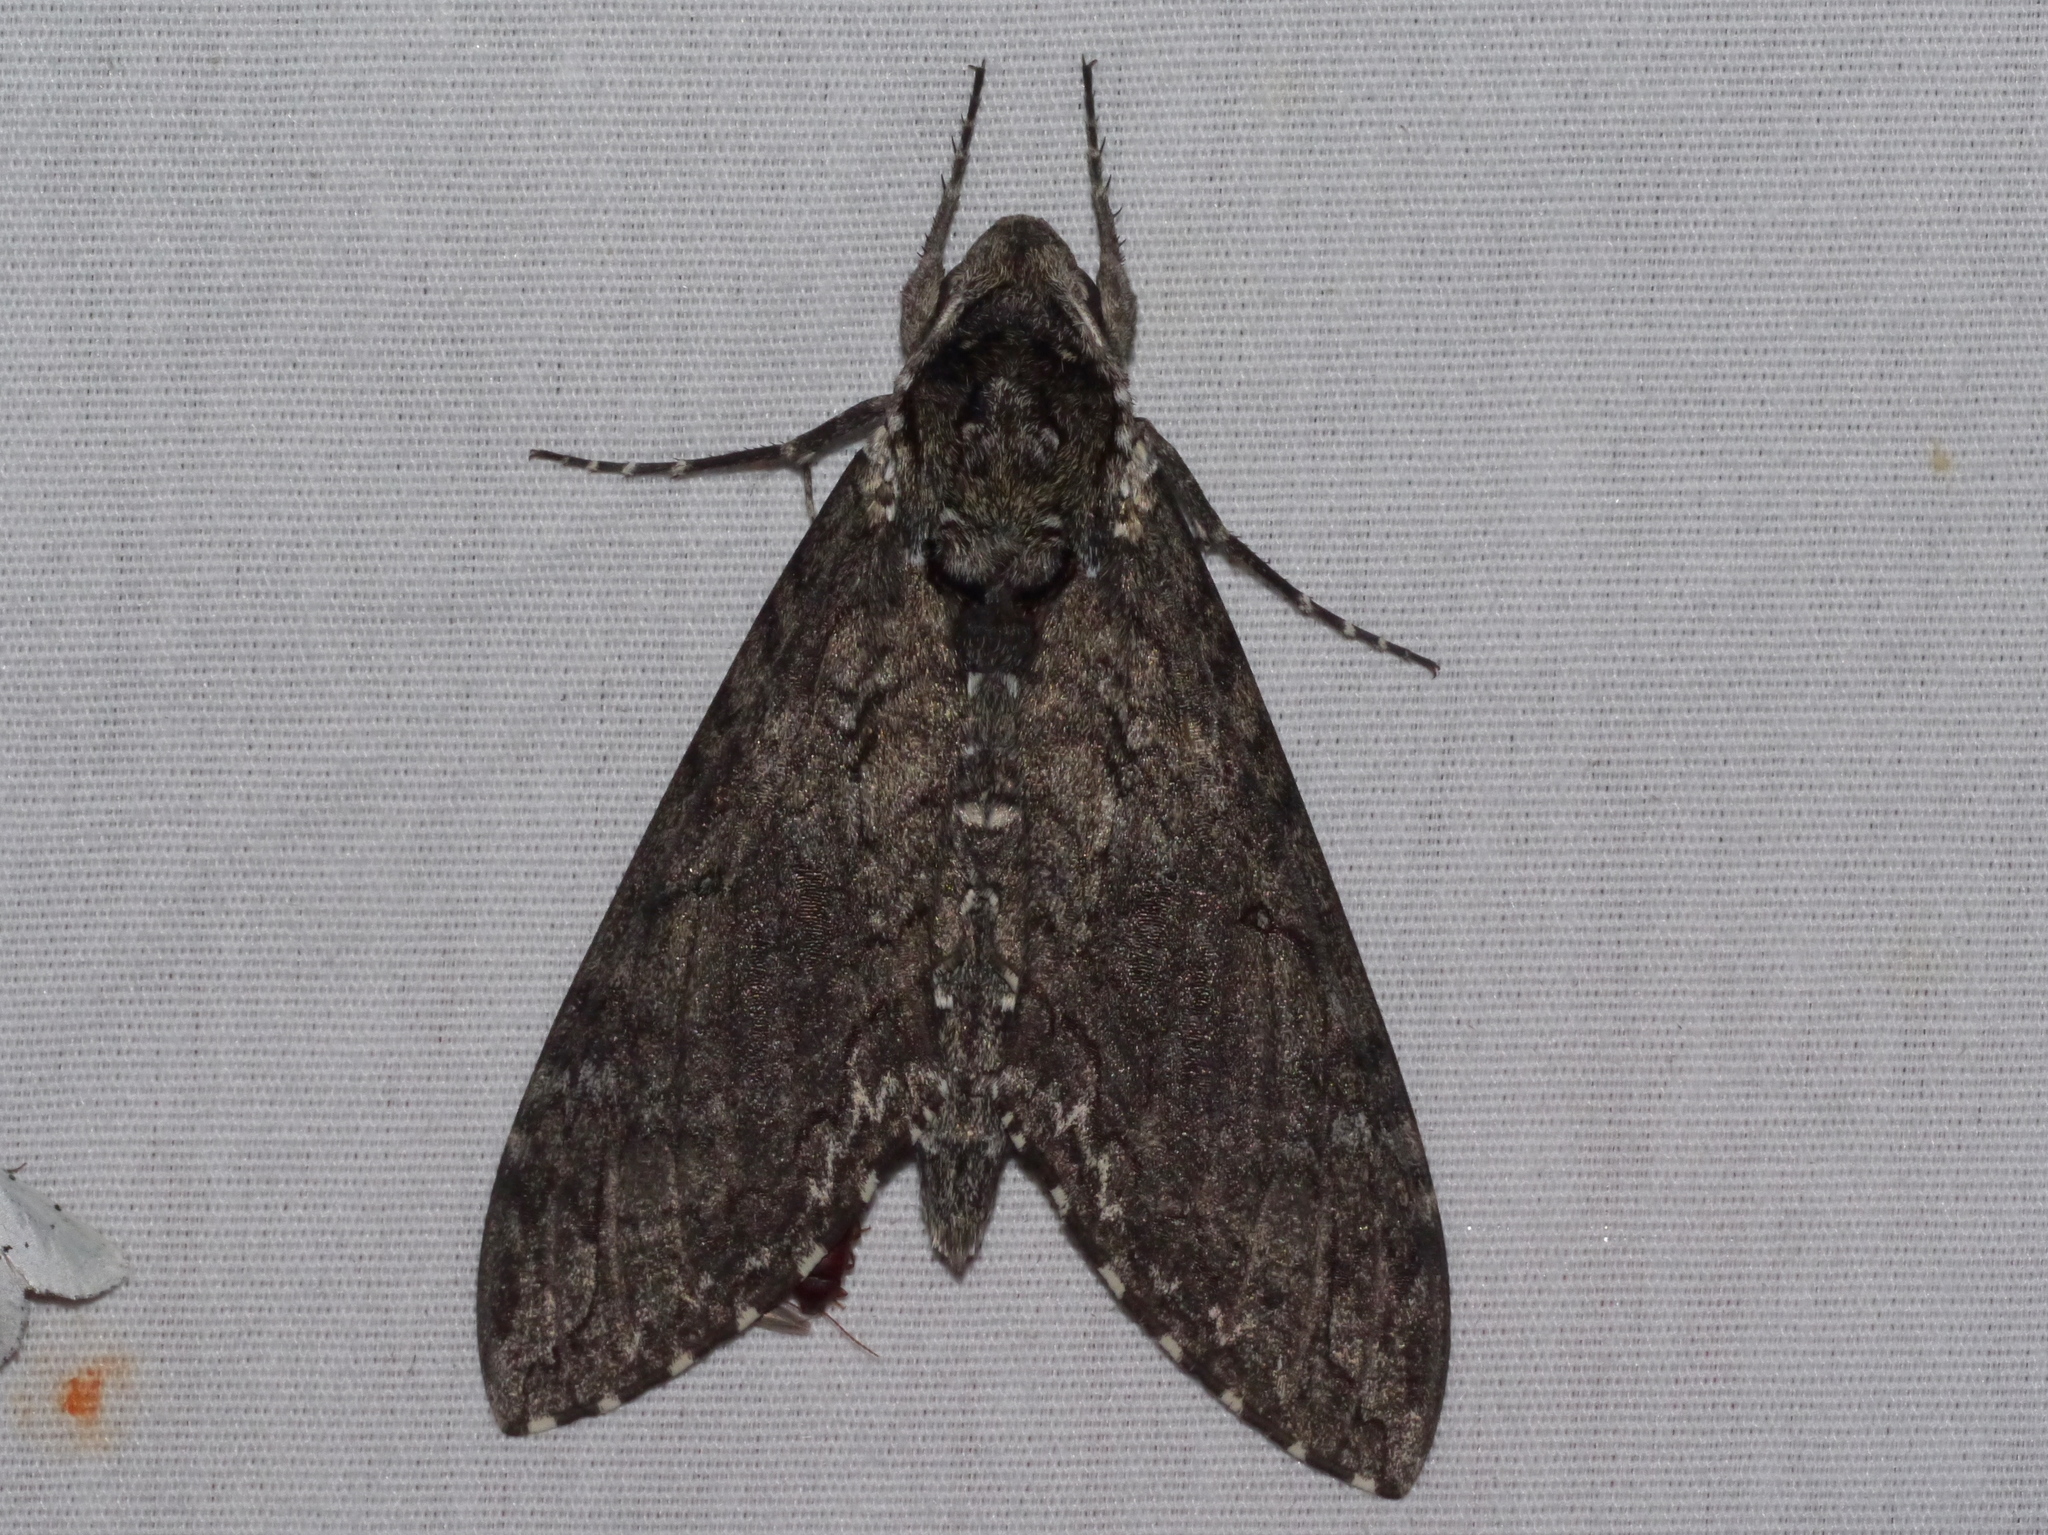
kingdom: Animalia
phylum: Arthropoda
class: Insecta
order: Lepidoptera
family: Sphingidae
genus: Manduca
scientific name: Manduca sexta
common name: Carolina sphinx
